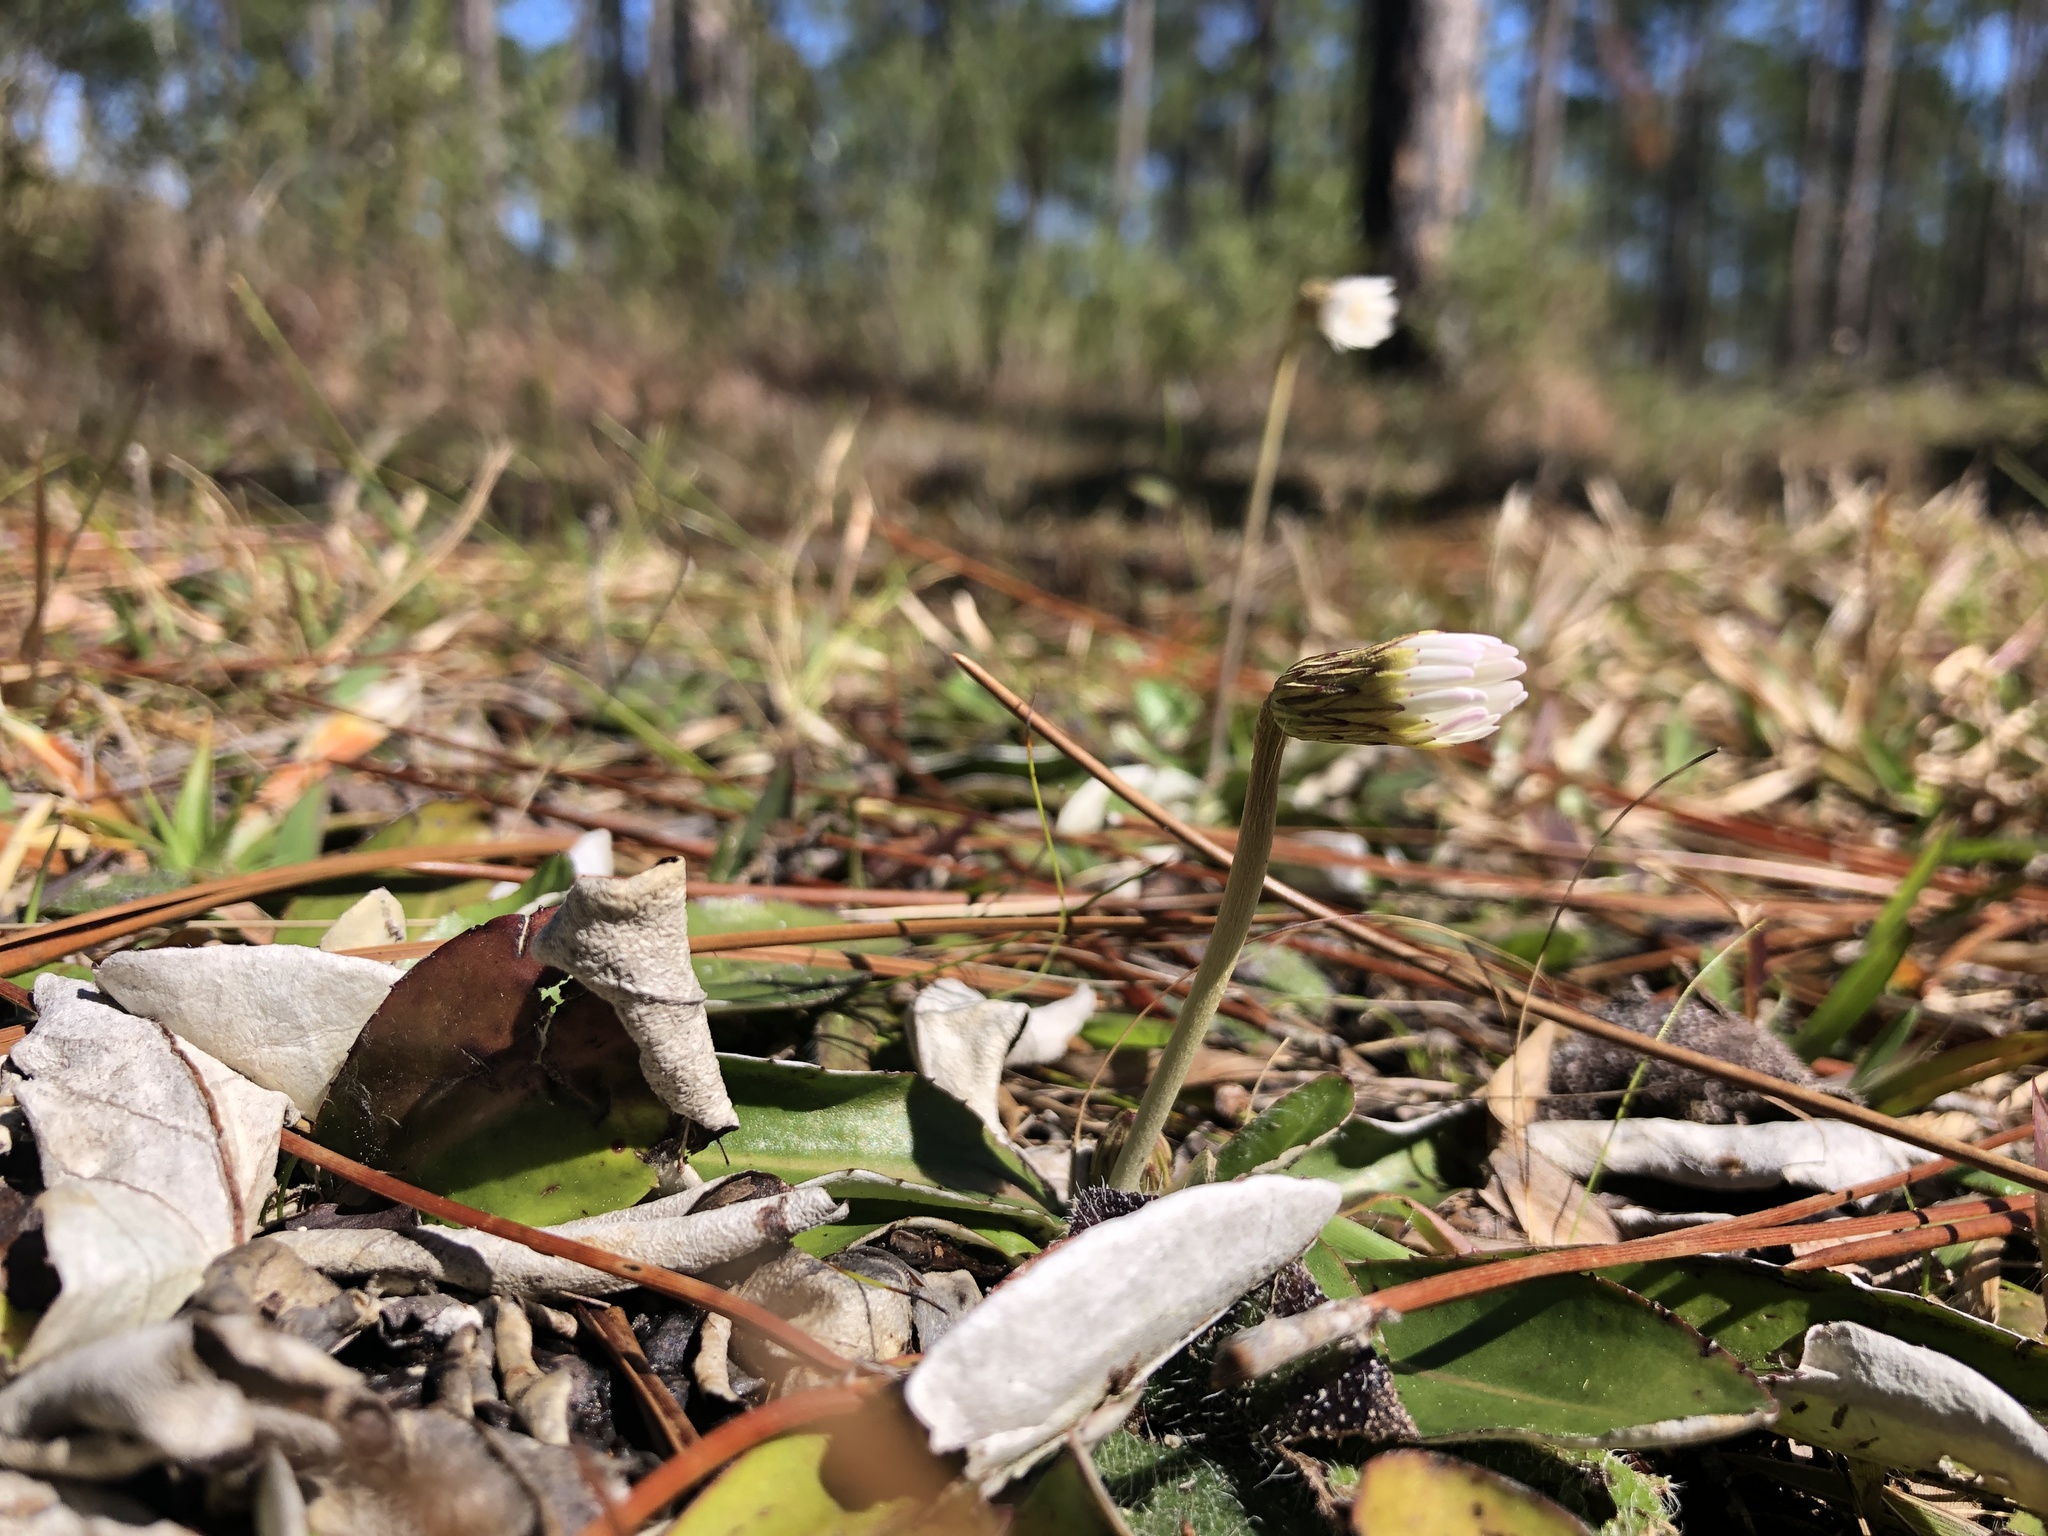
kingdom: Plantae
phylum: Tracheophyta
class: Magnoliopsida
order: Asterales
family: Asteraceae
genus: Chaptalia
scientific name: Chaptalia tomentosa
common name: Woolly sunbonnet
